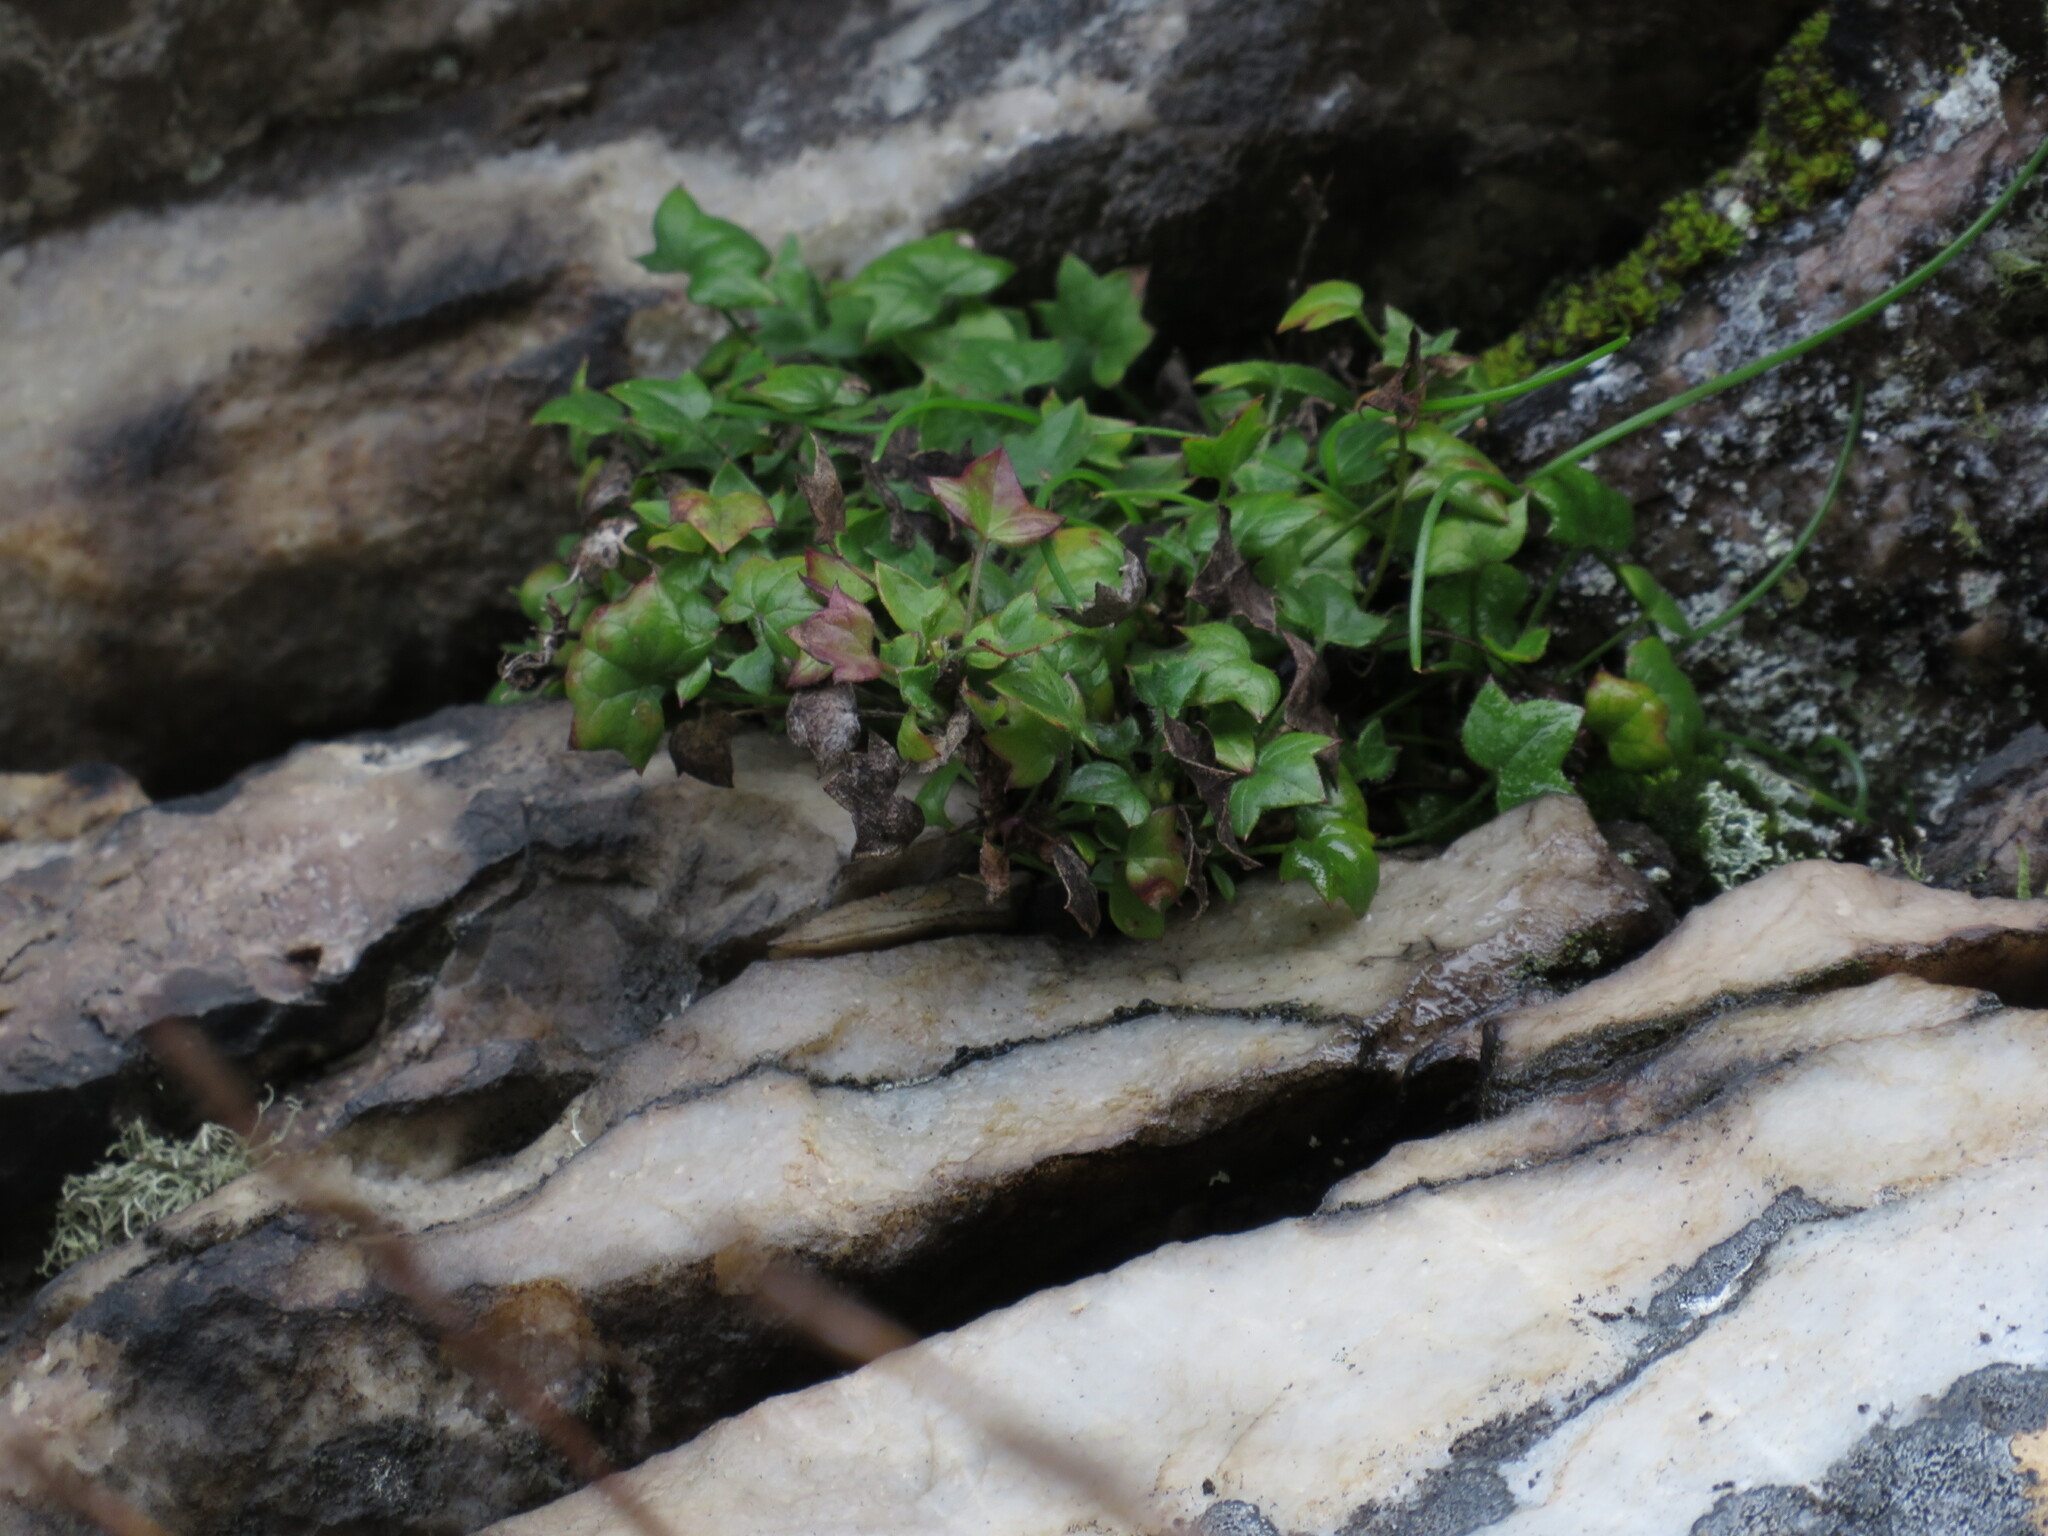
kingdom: Plantae
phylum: Tracheophyta
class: Magnoliopsida
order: Apiales
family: Apiaceae
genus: Centella
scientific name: Centella macroda
